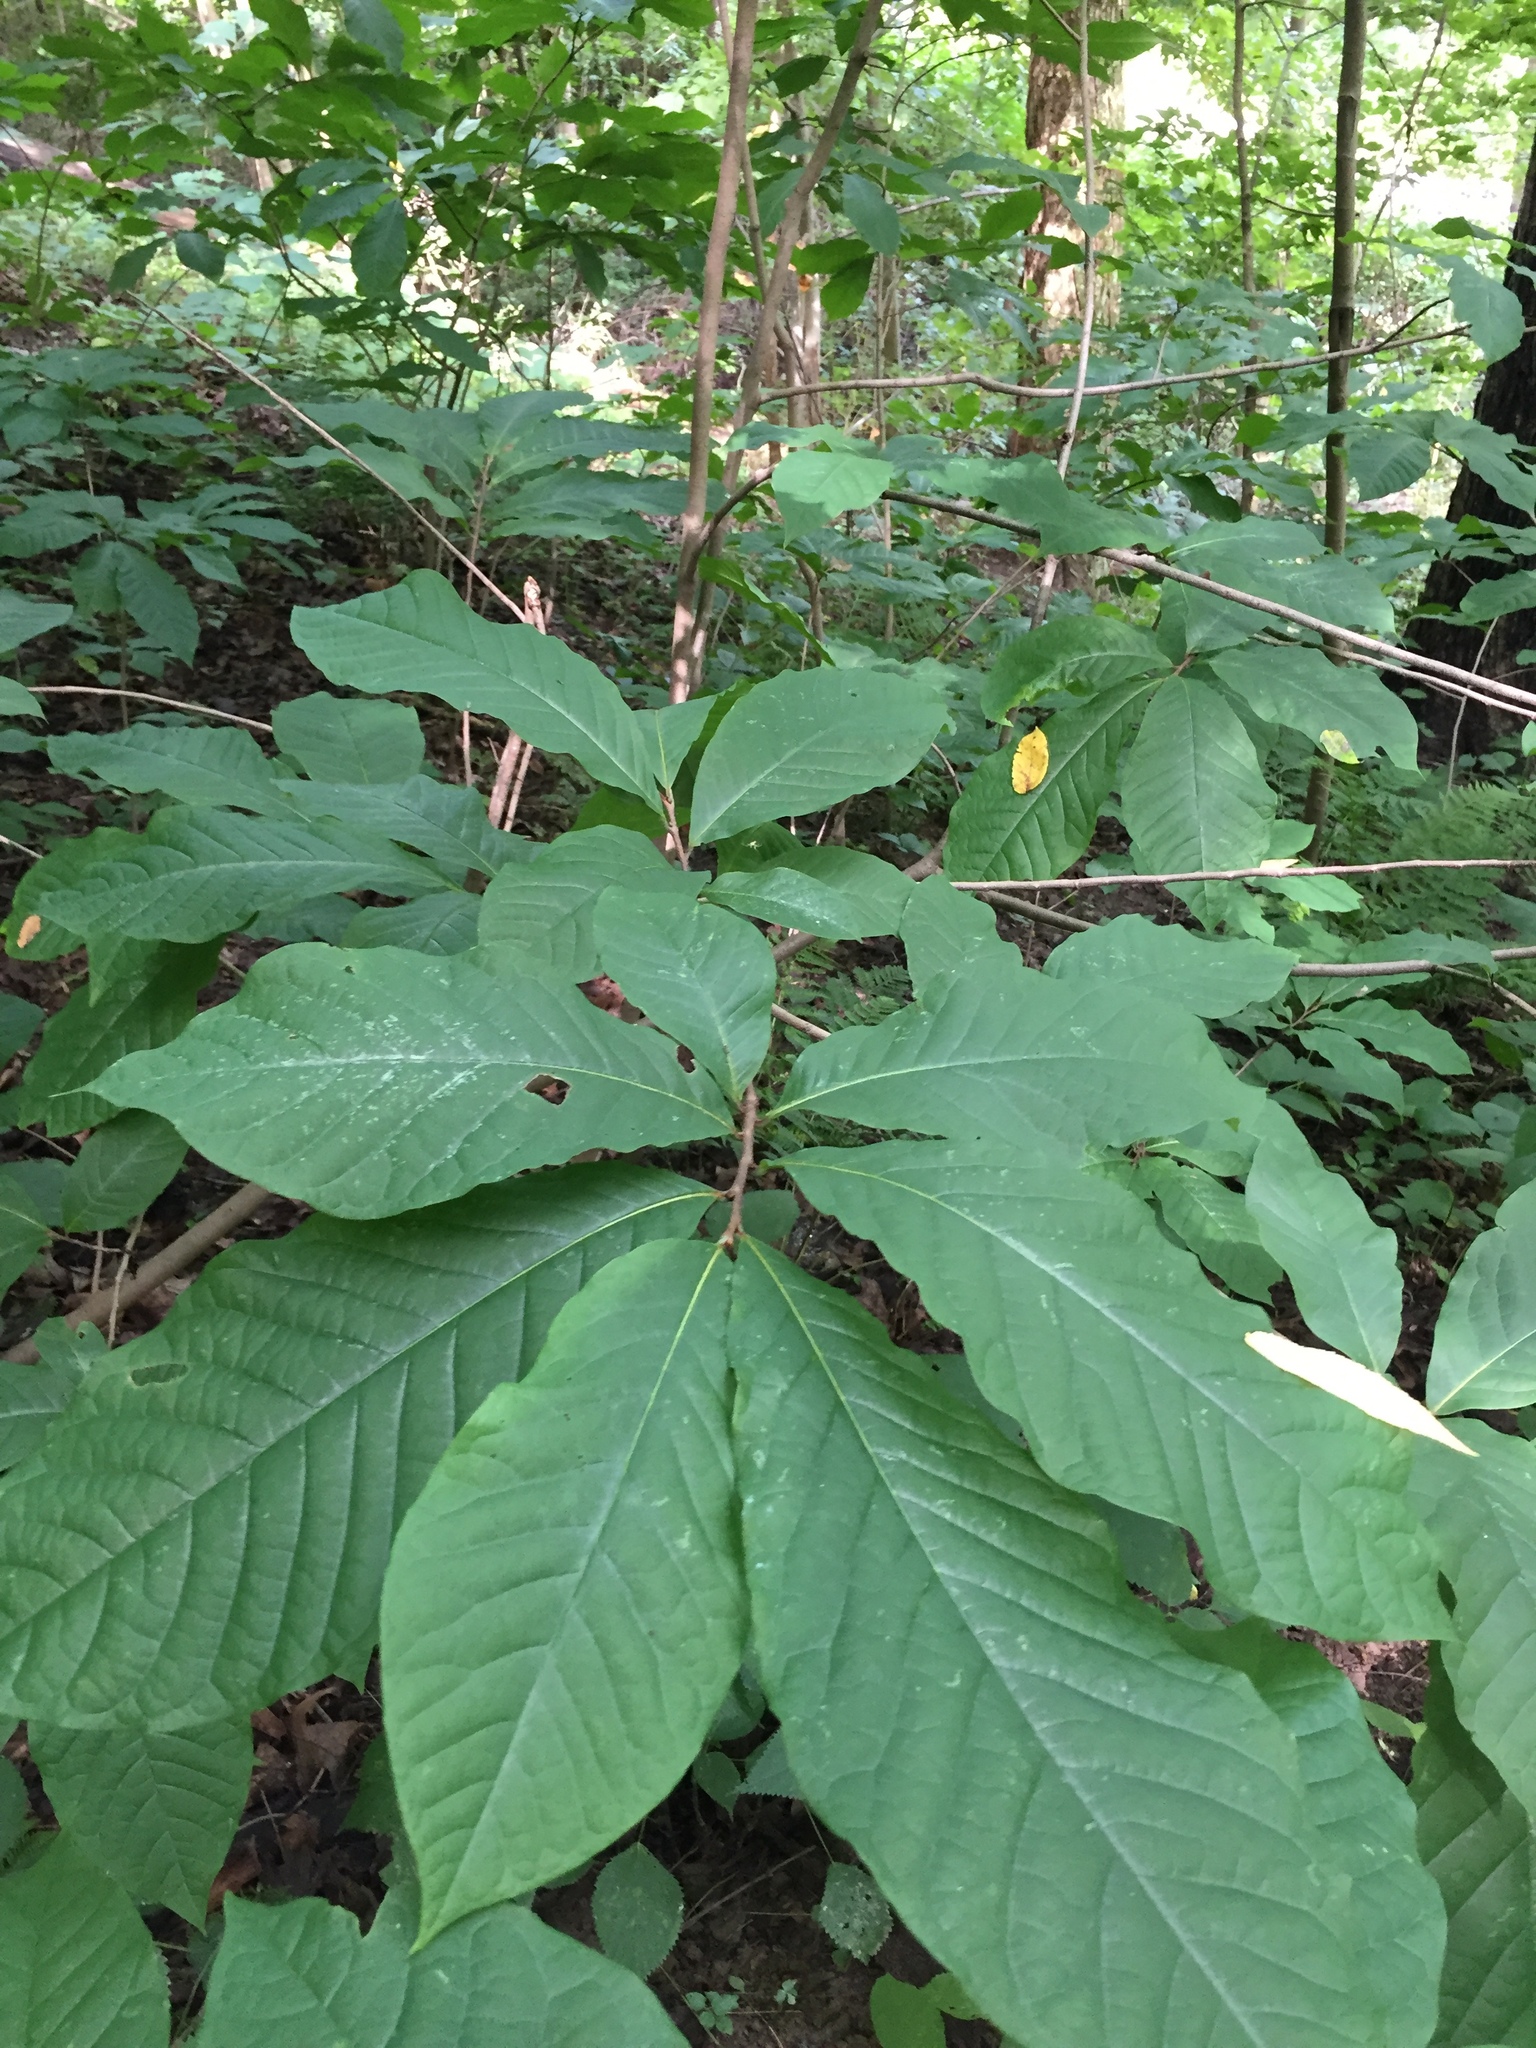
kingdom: Plantae
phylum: Tracheophyta
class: Magnoliopsida
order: Magnoliales
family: Annonaceae
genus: Asimina
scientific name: Asimina triloba
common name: Dog-banana
